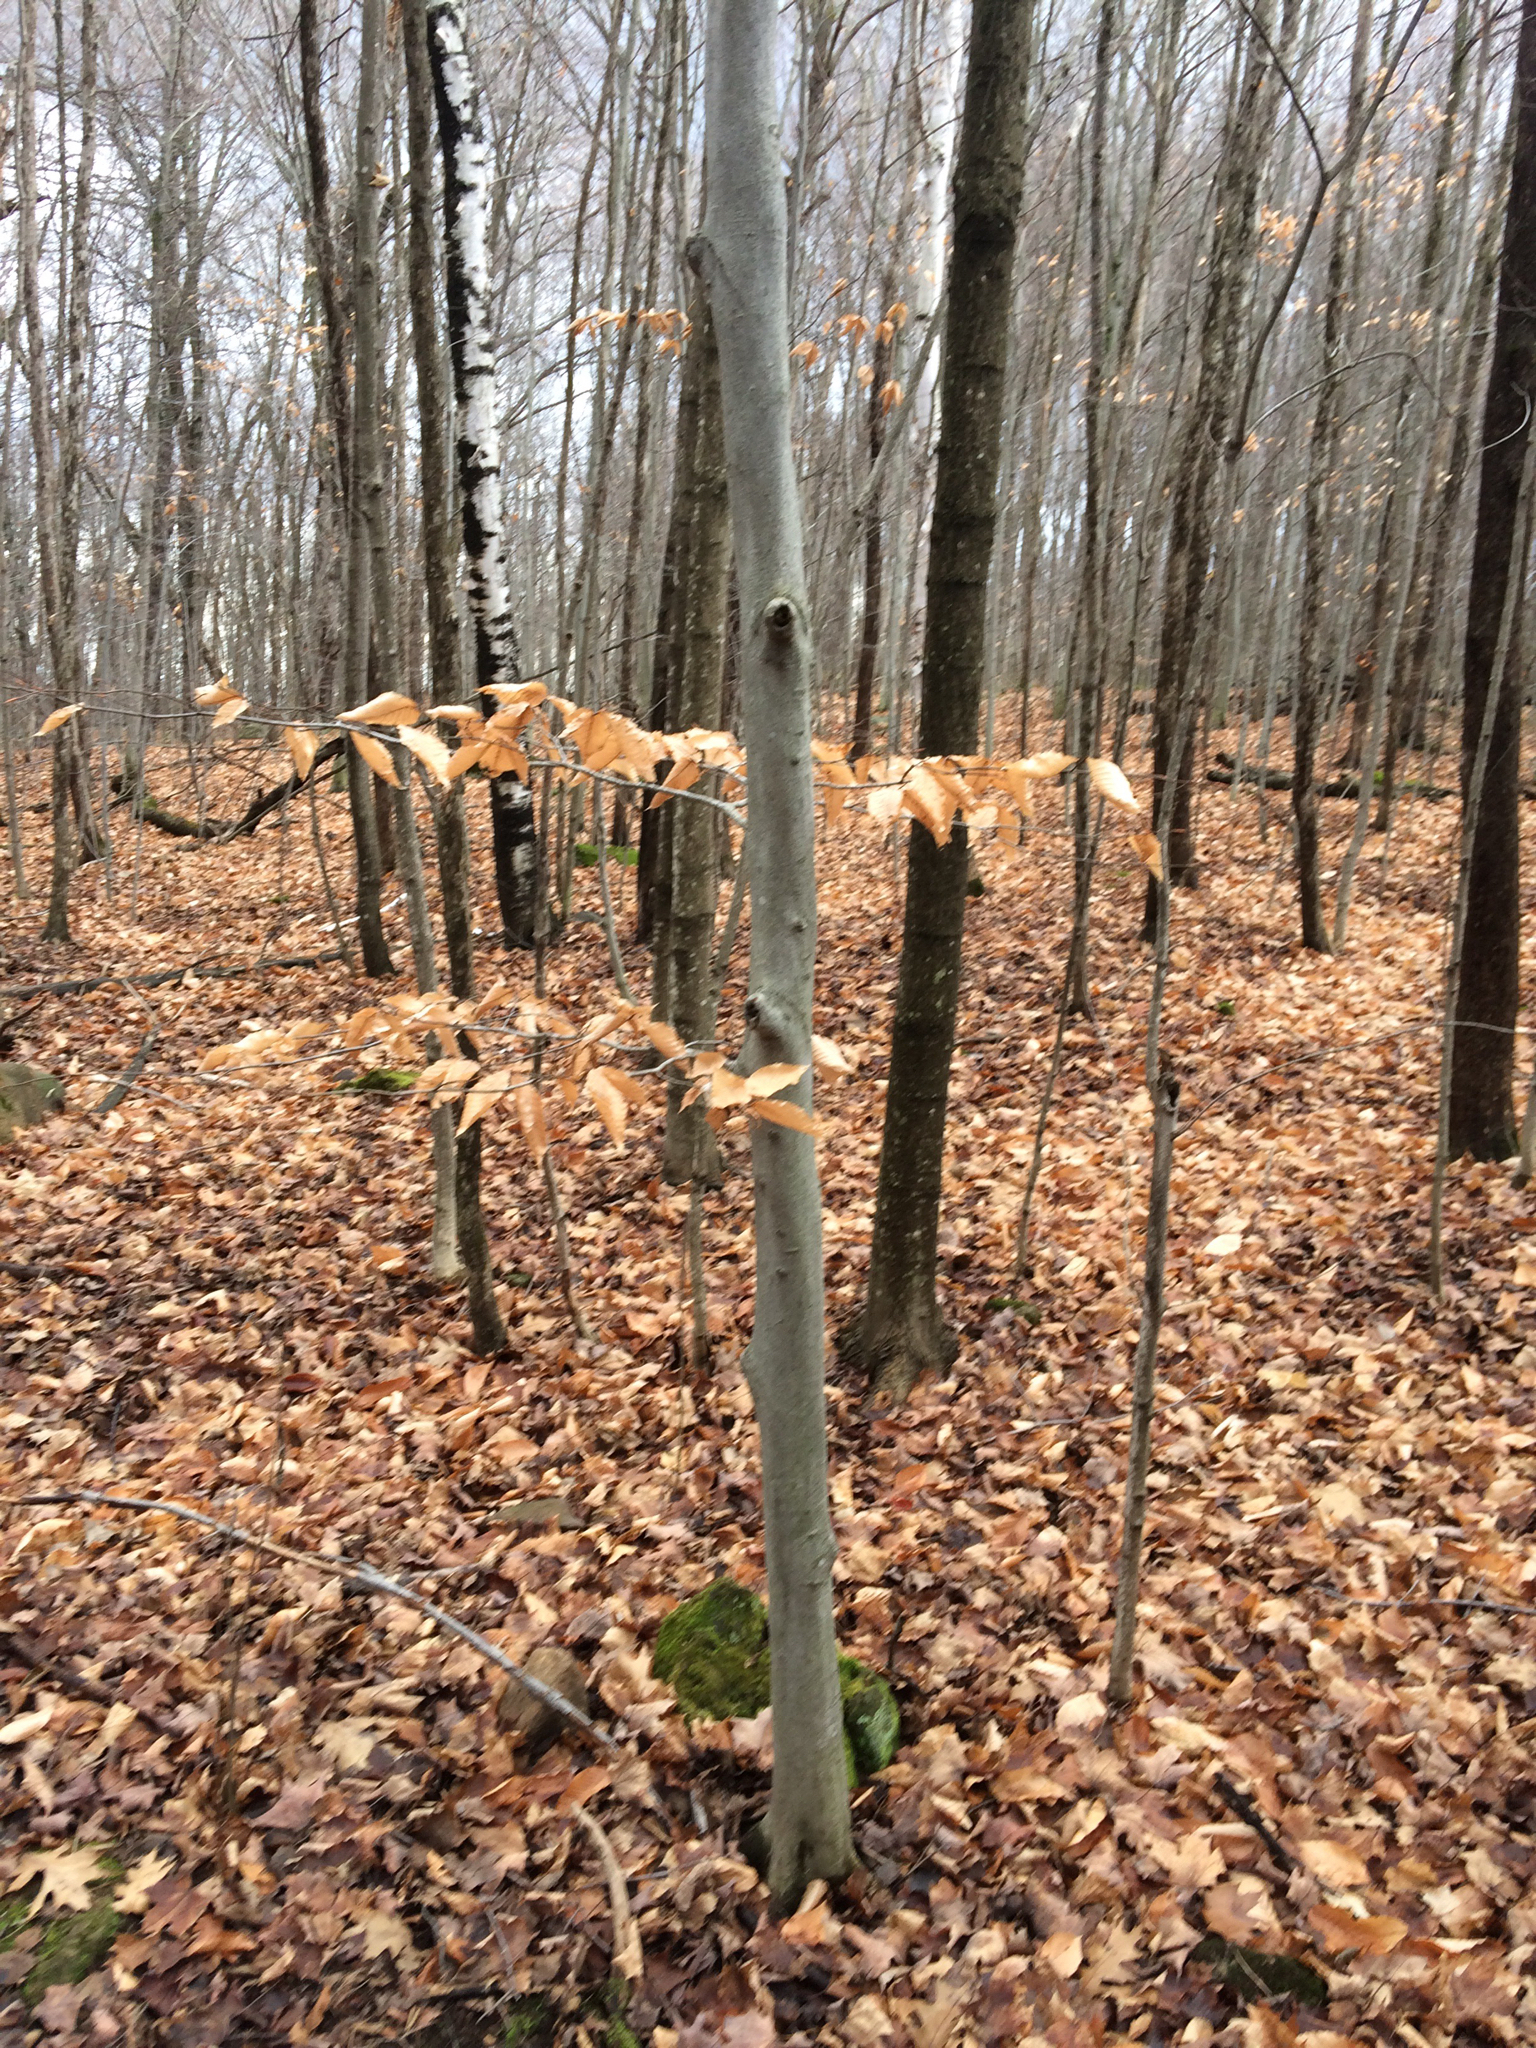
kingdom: Plantae
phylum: Tracheophyta
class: Magnoliopsida
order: Fagales
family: Fagaceae
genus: Fagus
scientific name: Fagus grandifolia
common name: American beech
